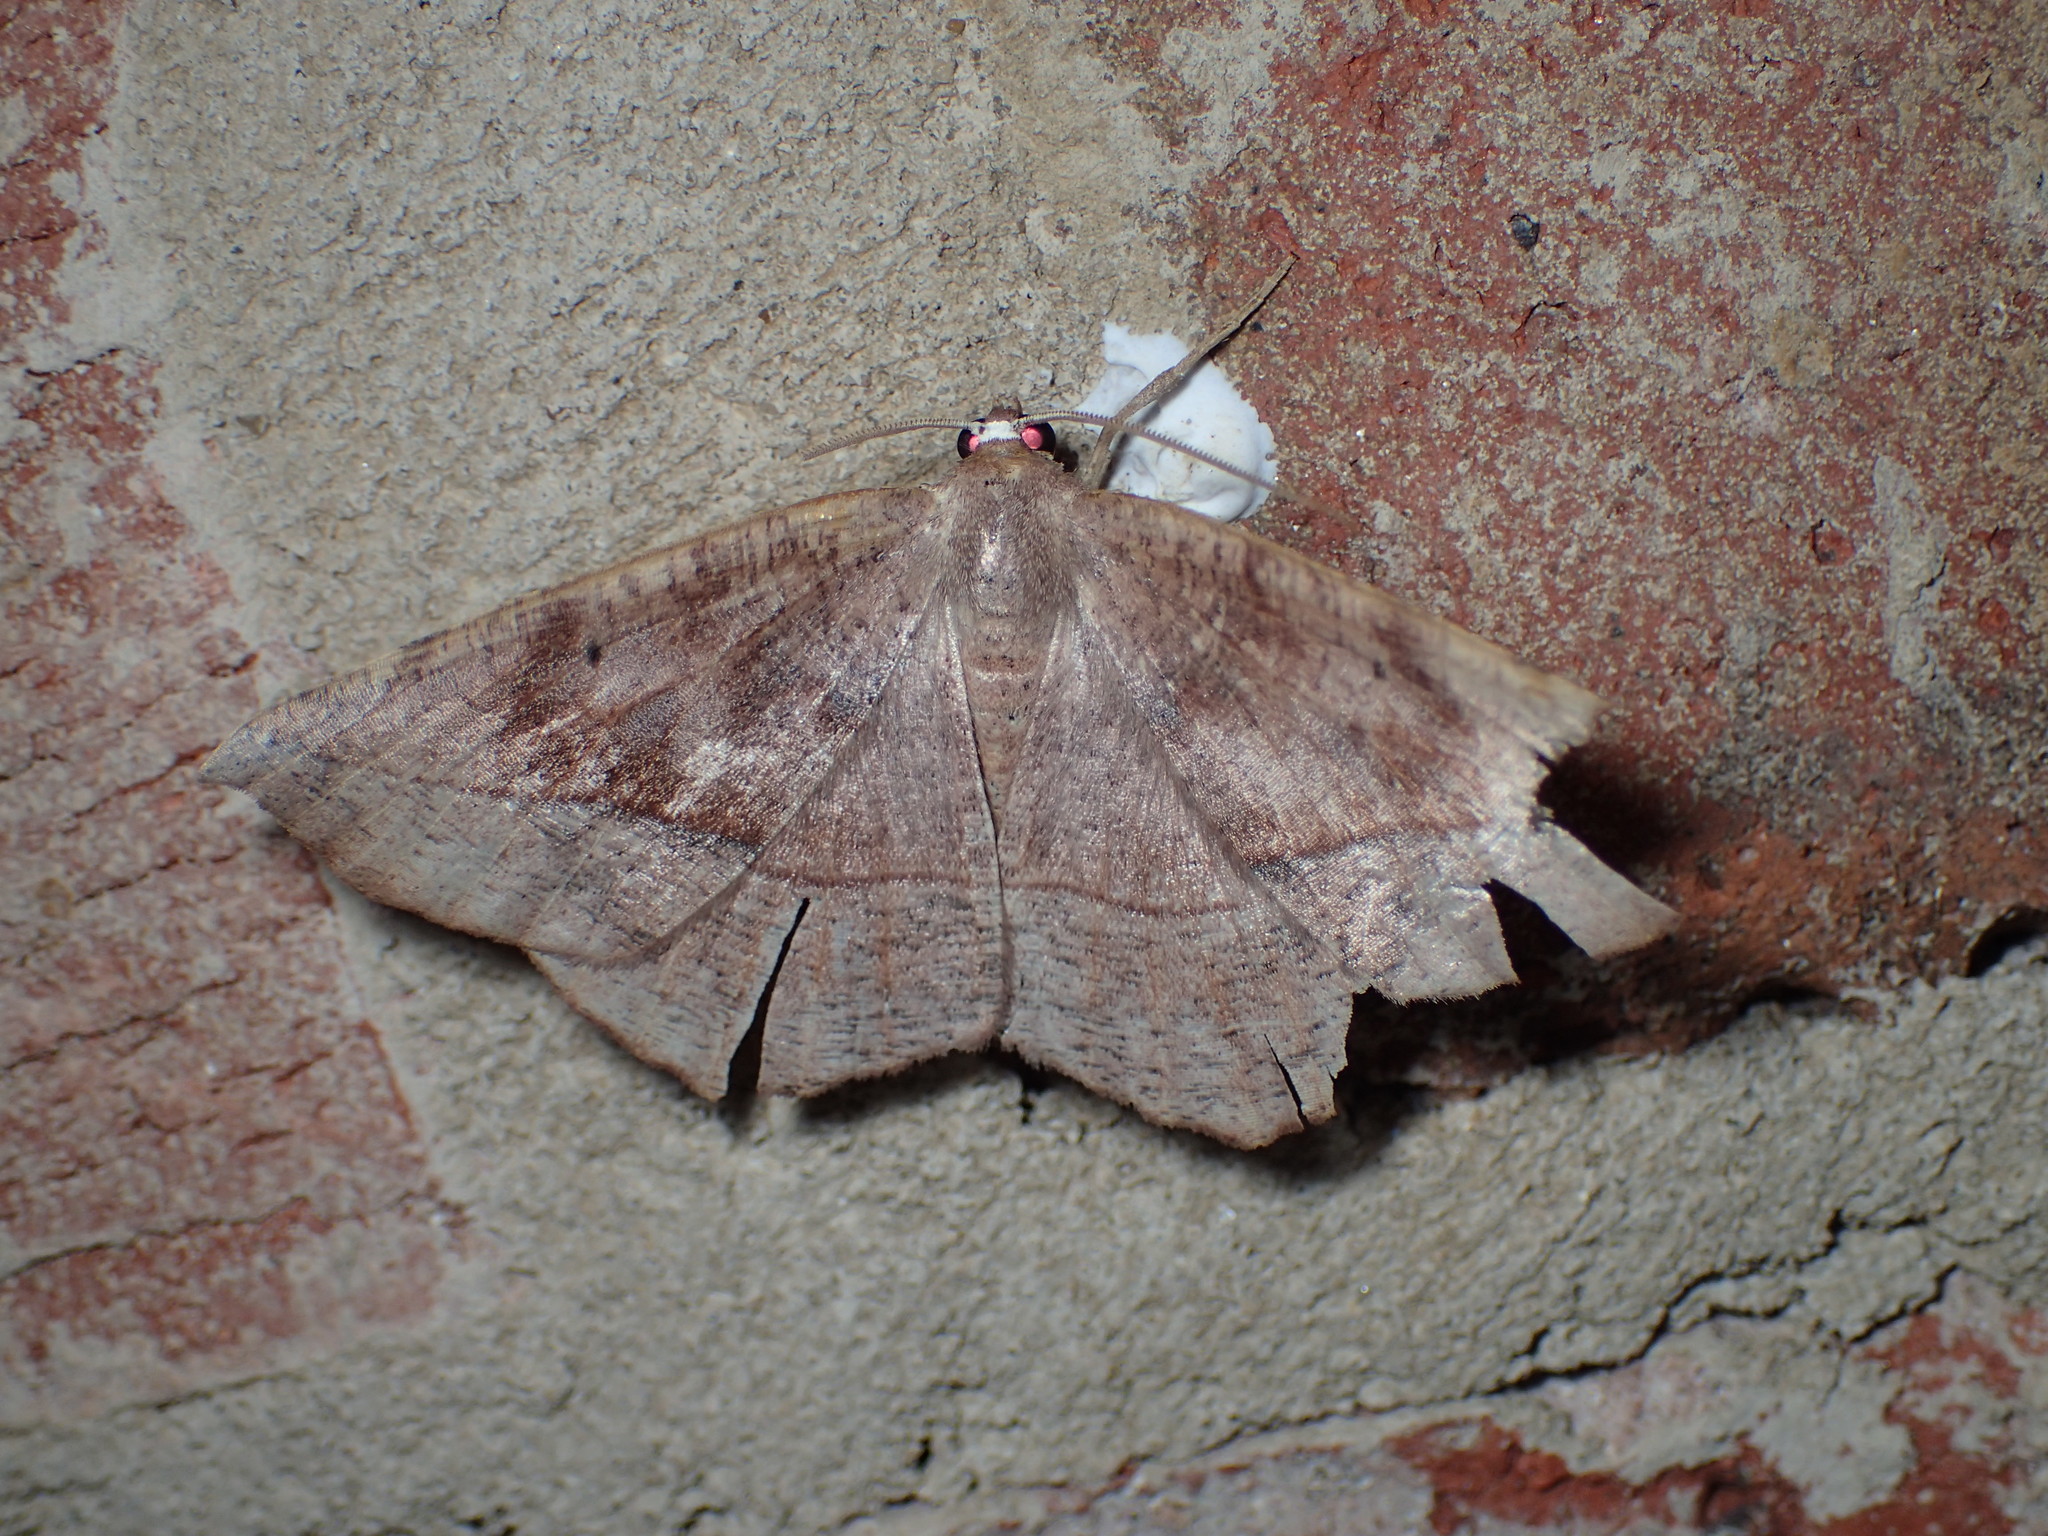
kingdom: Animalia
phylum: Arthropoda
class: Insecta
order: Lepidoptera
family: Geometridae
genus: Eutrapela
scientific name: Eutrapela clemataria
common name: Curved-toothed geometer
